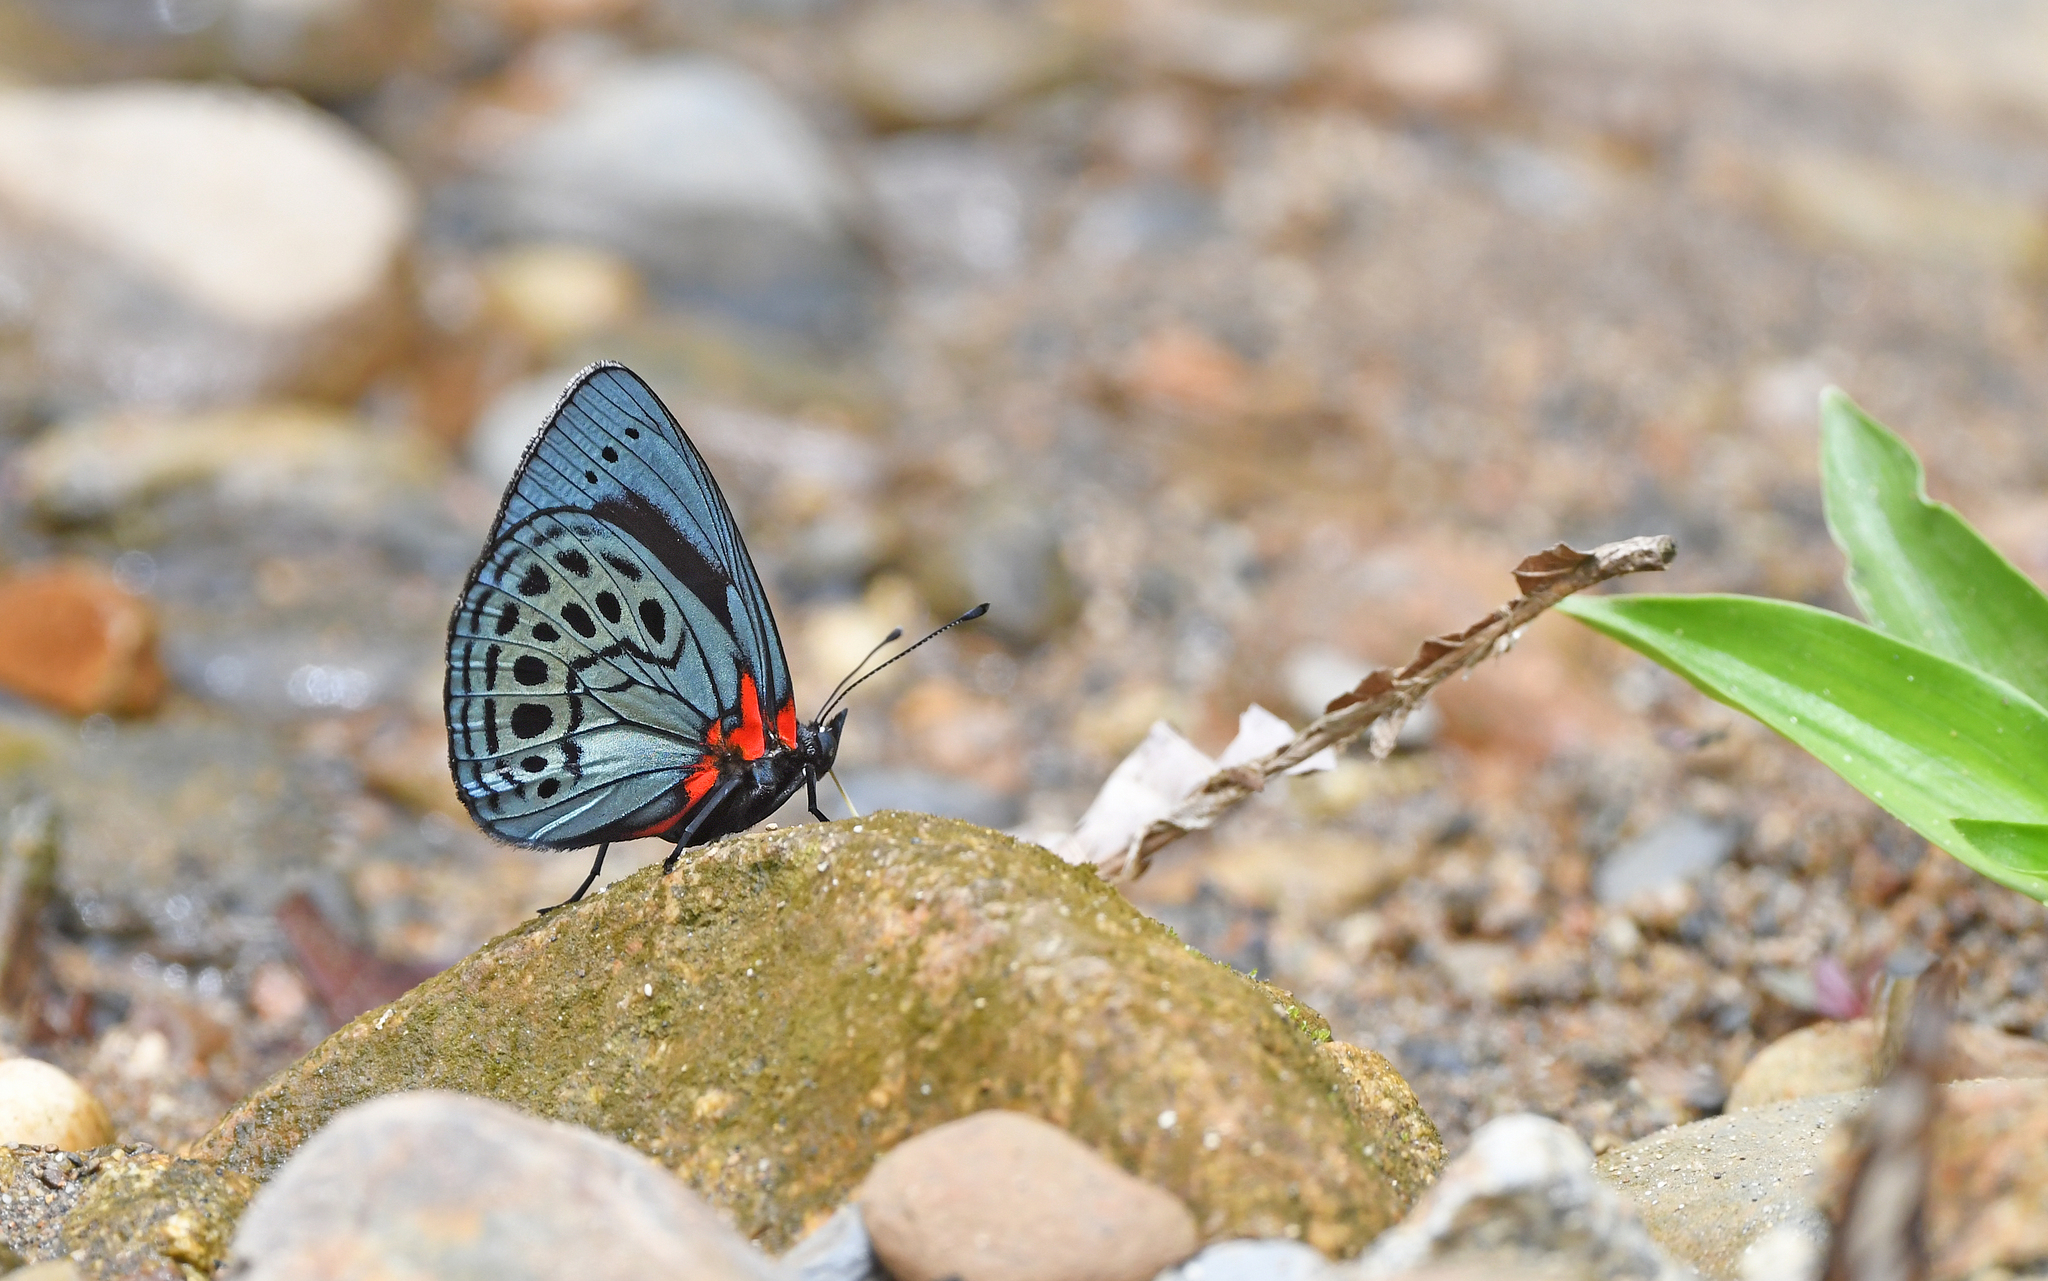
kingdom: Animalia
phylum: Arthropoda
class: Insecta
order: Lepidoptera
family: Nymphalidae
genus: Asterope
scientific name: Asterope leprieuri
